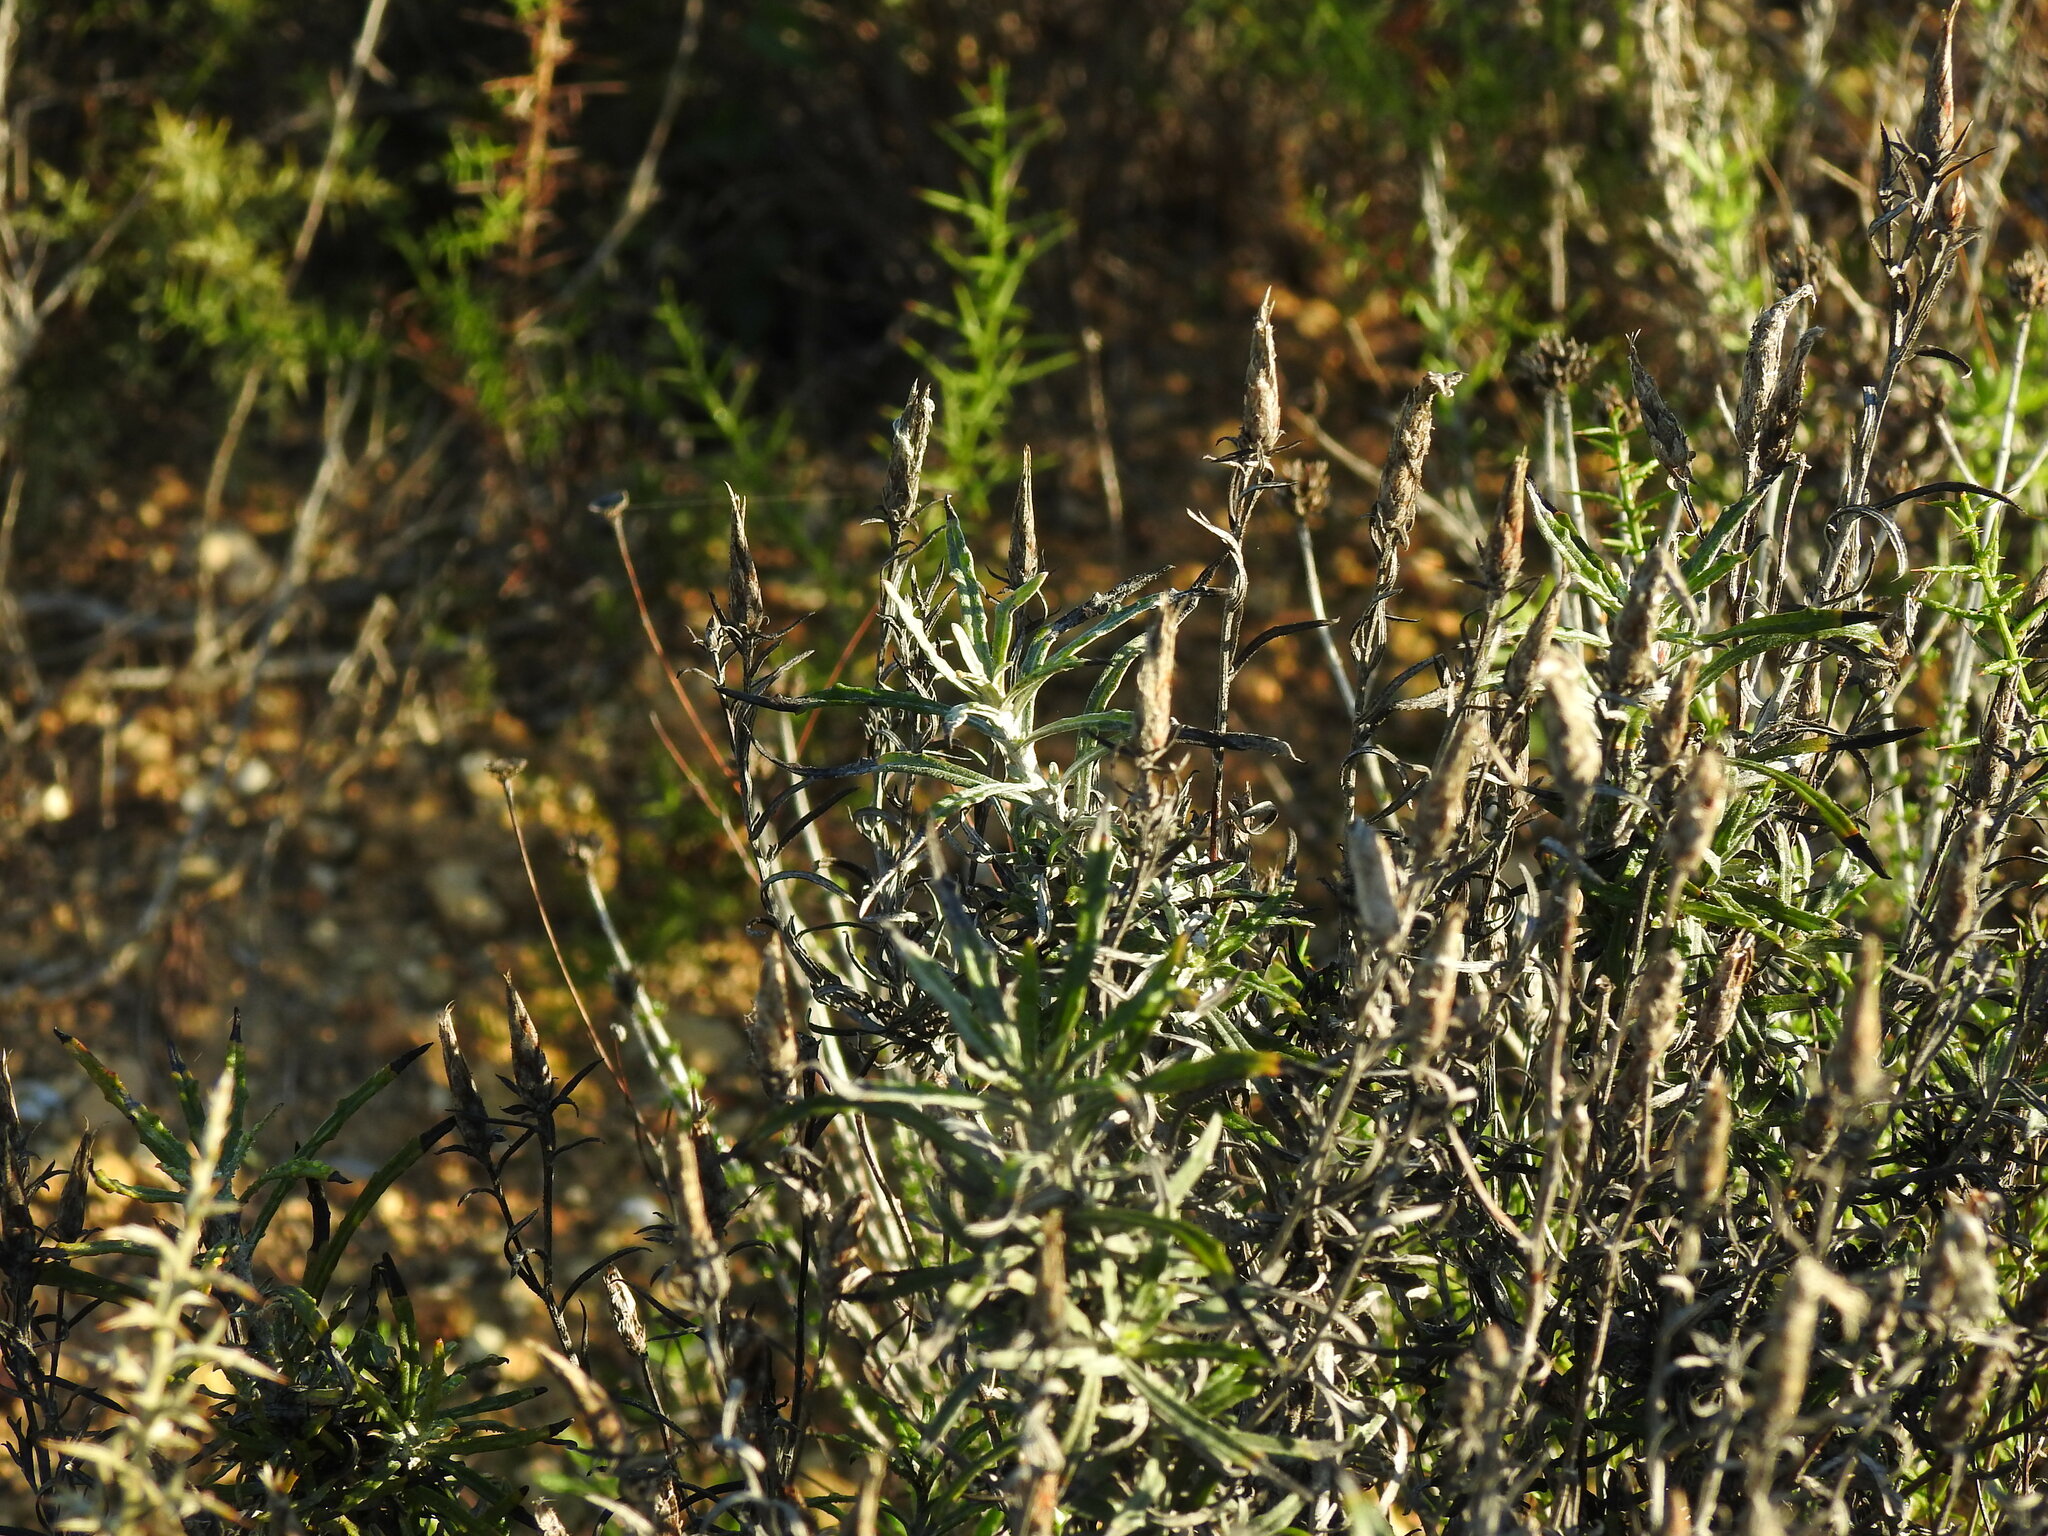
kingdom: Plantae
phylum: Tracheophyta
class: Magnoliopsida
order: Asterales
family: Asteraceae
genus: Staehelina
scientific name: Staehelina dubia
